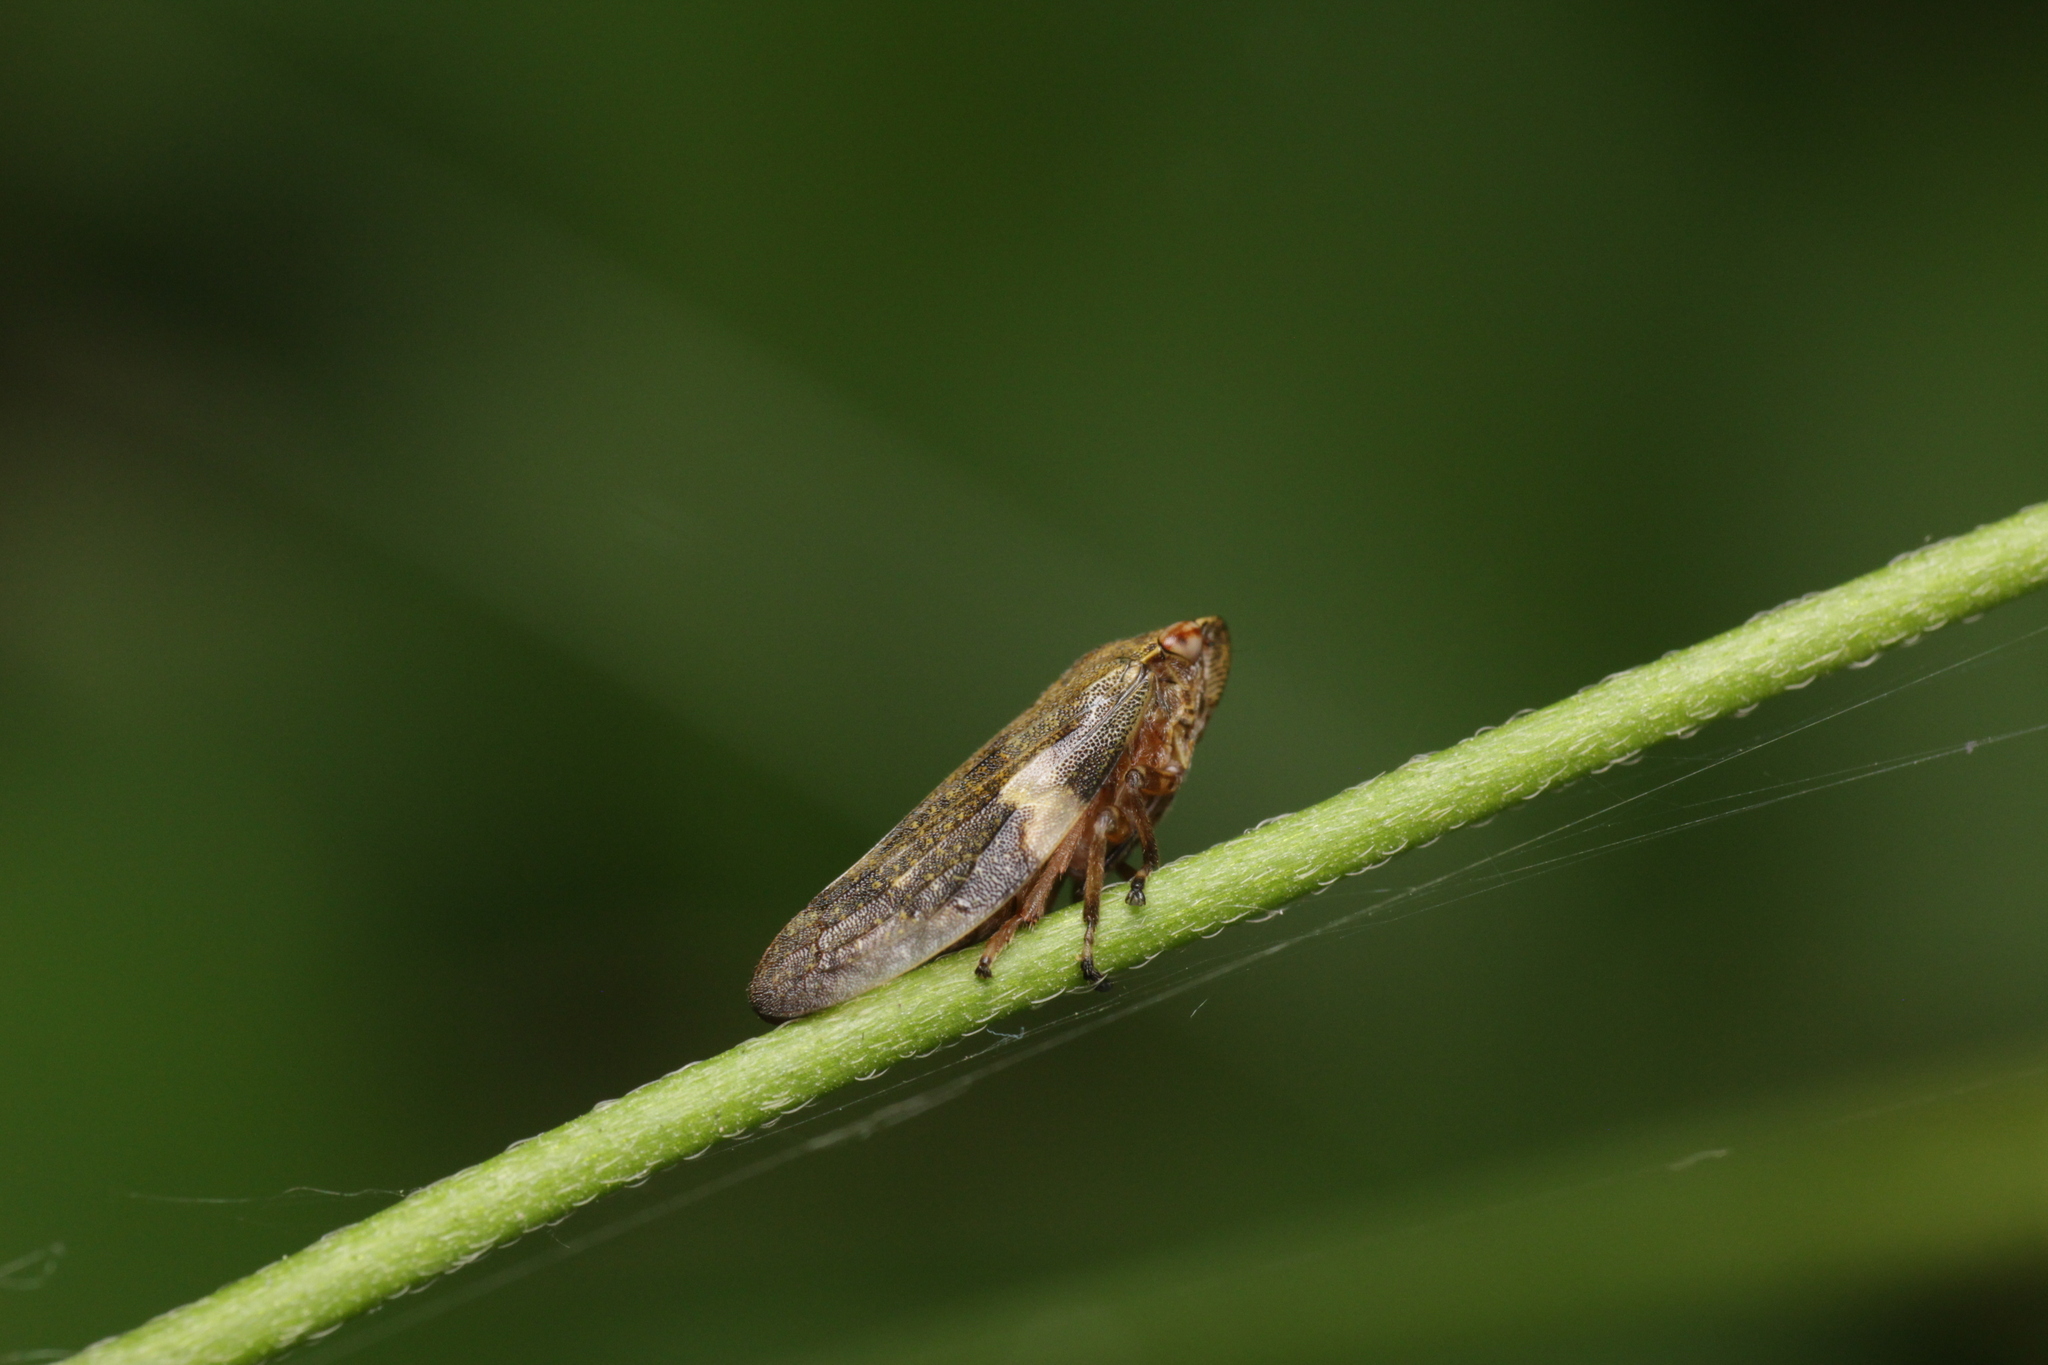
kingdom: Animalia
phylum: Arthropoda
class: Insecta
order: Hemiptera
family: Aphrophoridae
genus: Aphrophora
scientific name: Aphrophora alni
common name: European alder spittlebug
